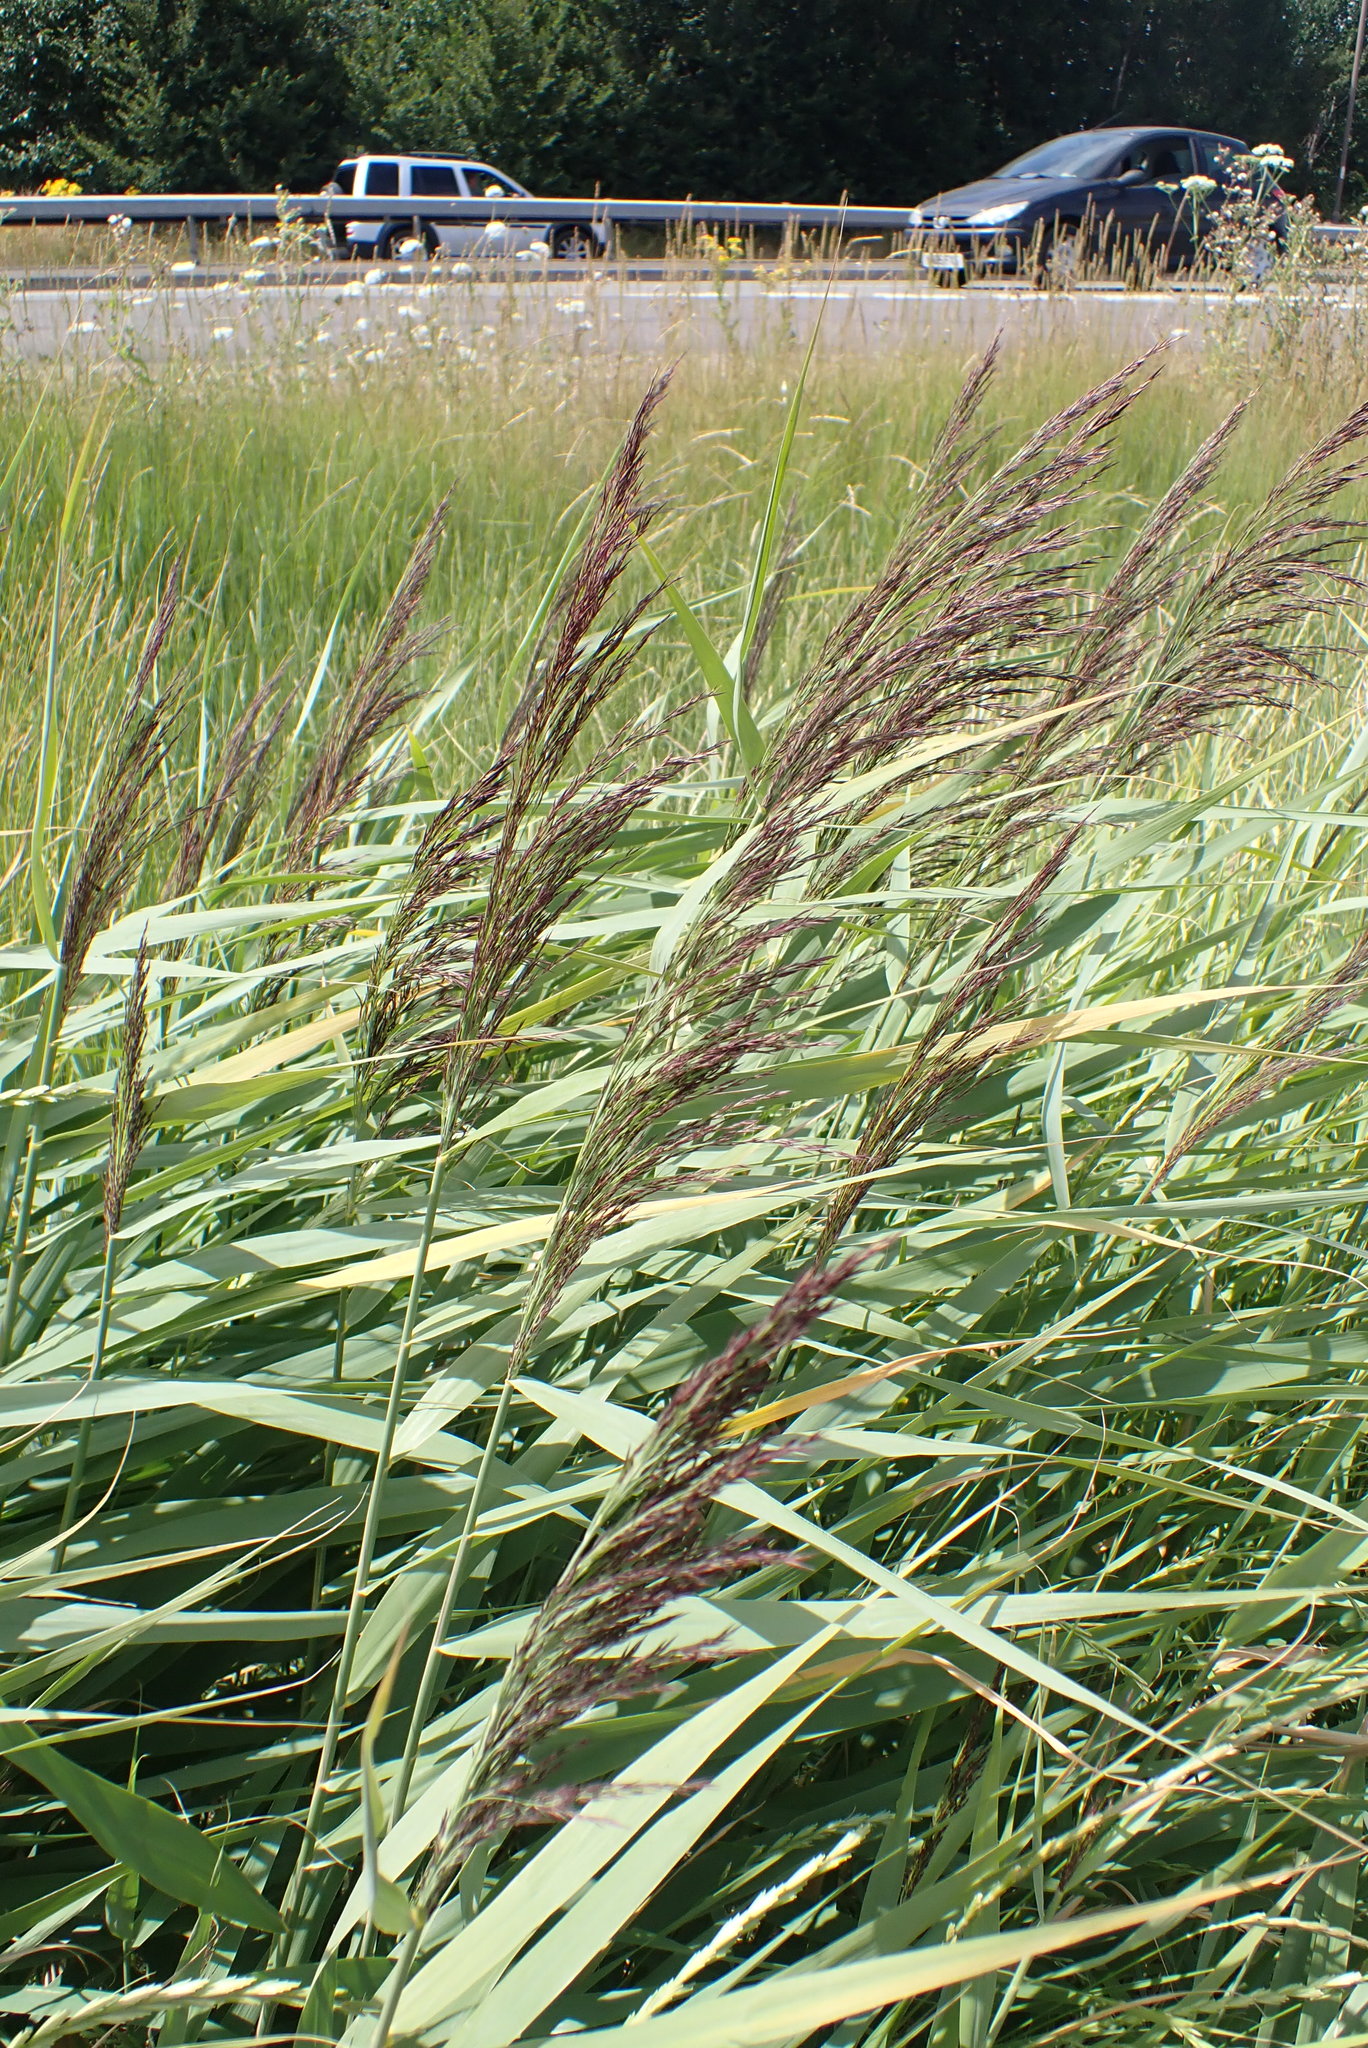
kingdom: Plantae
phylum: Tracheophyta
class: Liliopsida
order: Poales
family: Poaceae
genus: Phragmites
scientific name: Phragmites australis
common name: Common reed
